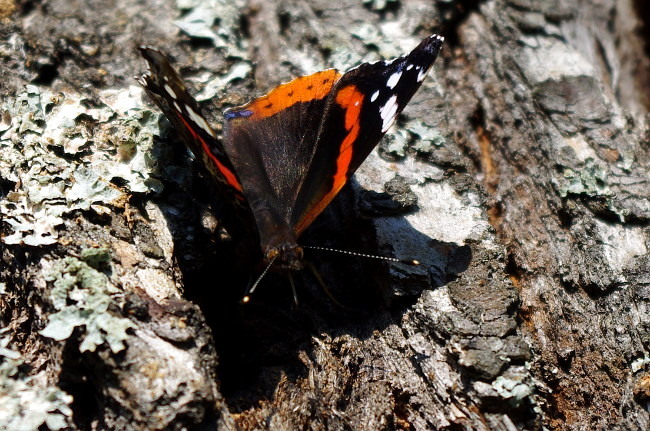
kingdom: Animalia
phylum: Arthropoda
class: Insecta
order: Lepidoptera
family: Nymphalidae
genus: Vanessa
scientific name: Vanessa atalanta
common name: Red admiral
